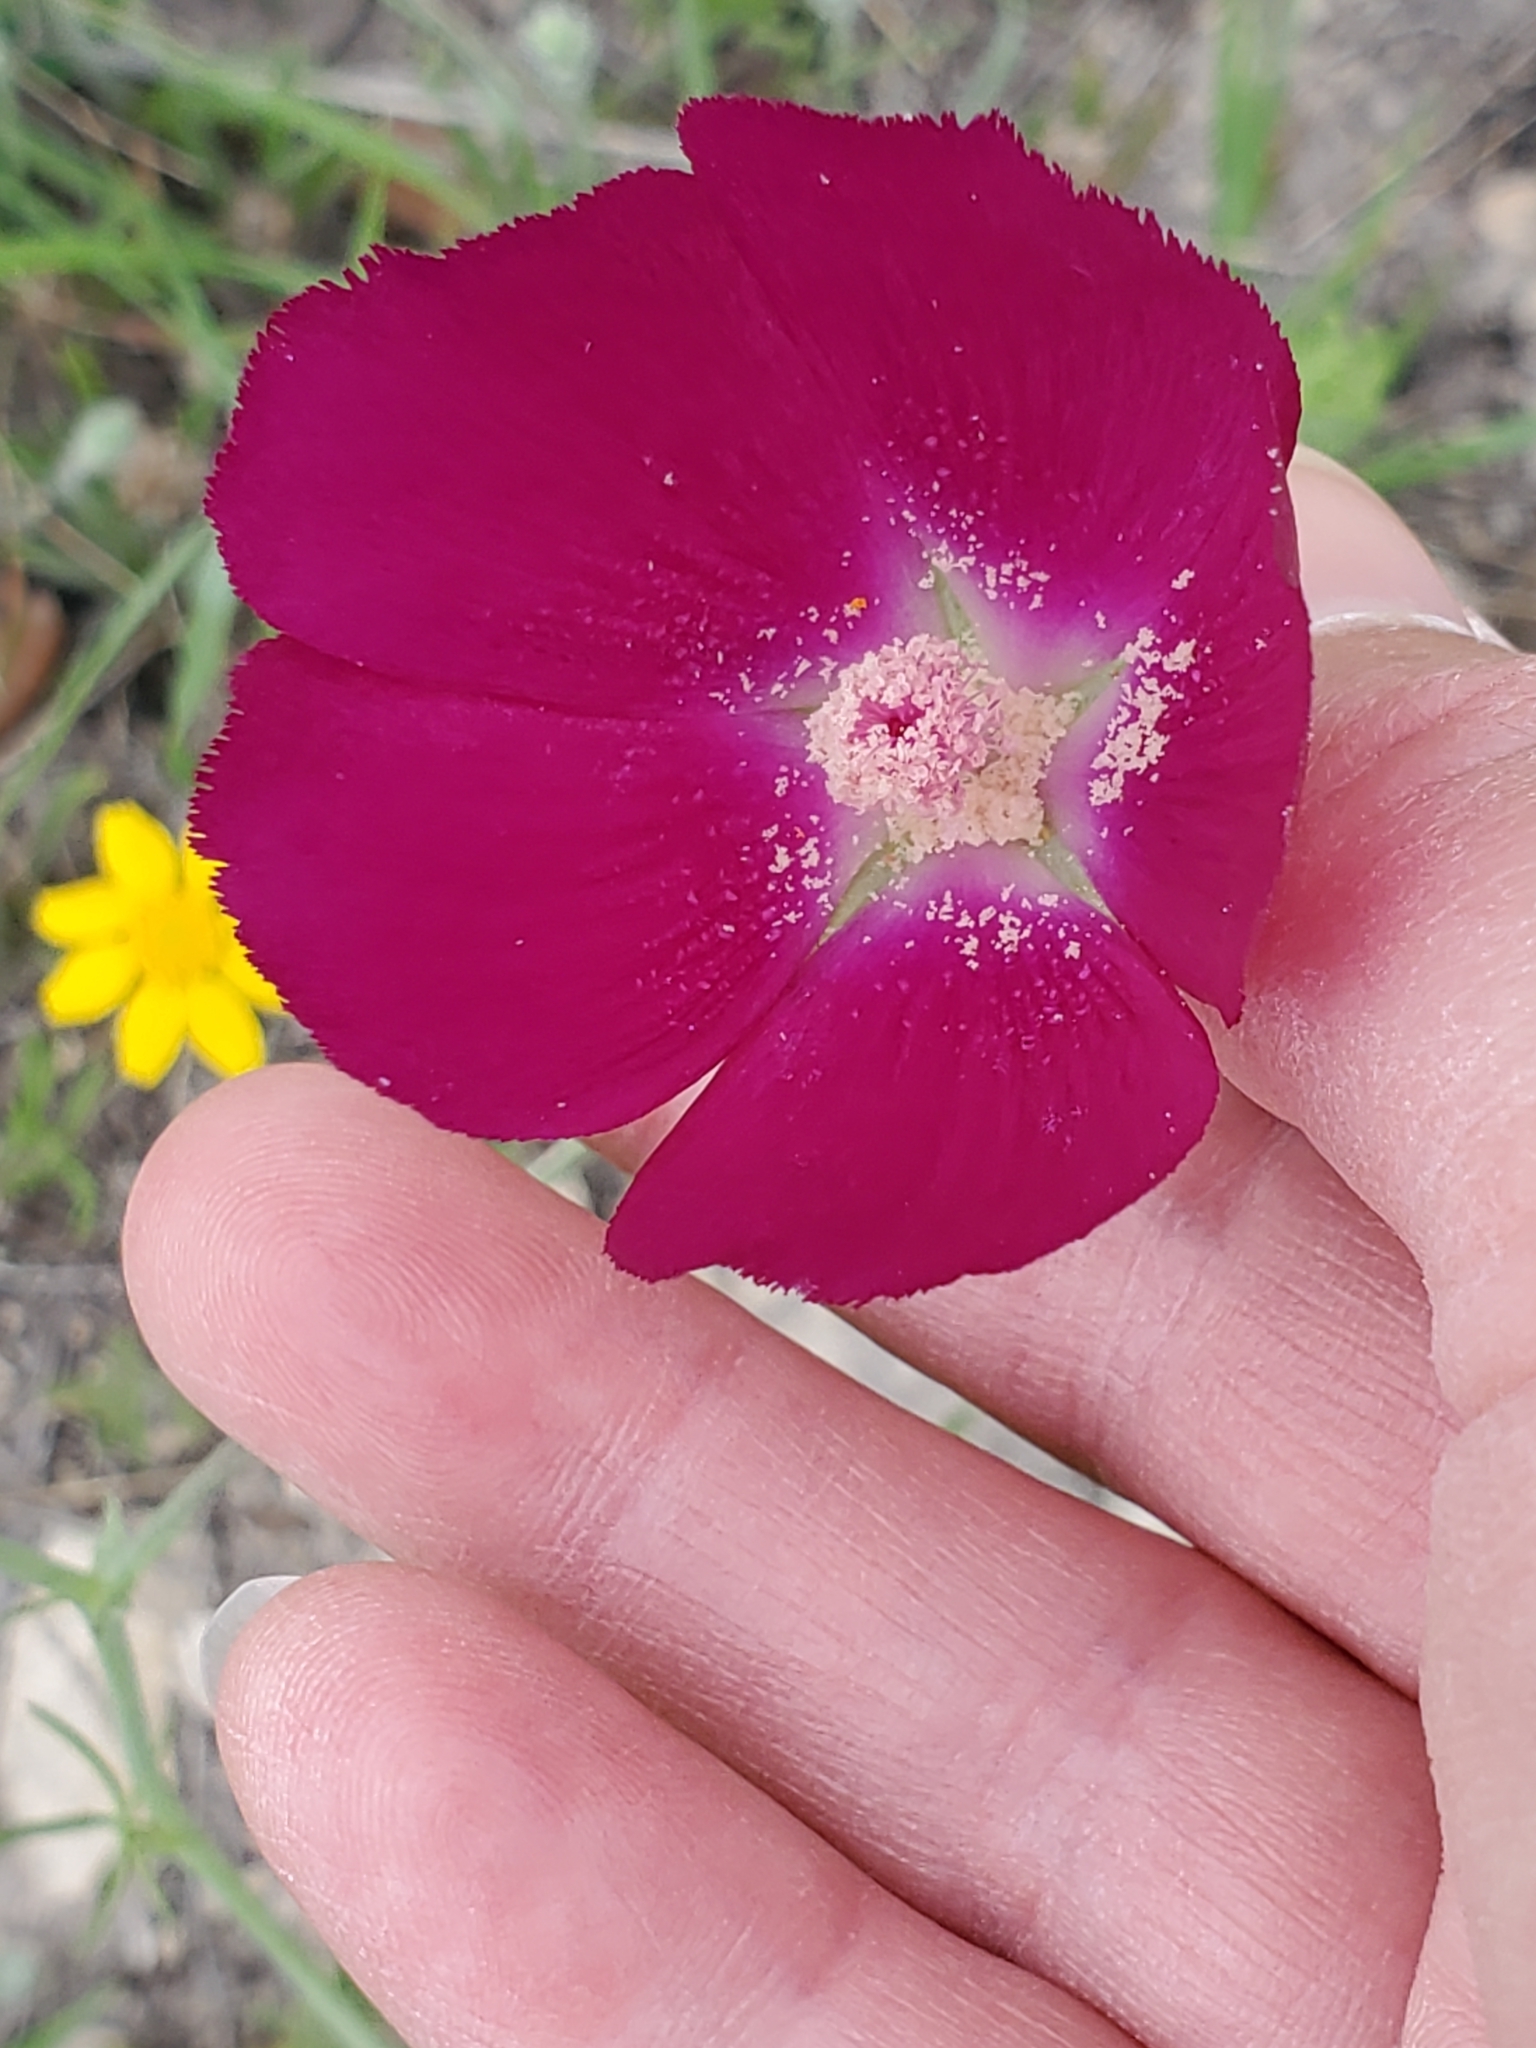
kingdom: Plantae
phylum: Tracheophyta
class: Magnoliopsida
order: Malvales
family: Malvaceae
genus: Callirhoe
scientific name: Callirhoe pedata
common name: Finger poppy-mallow
